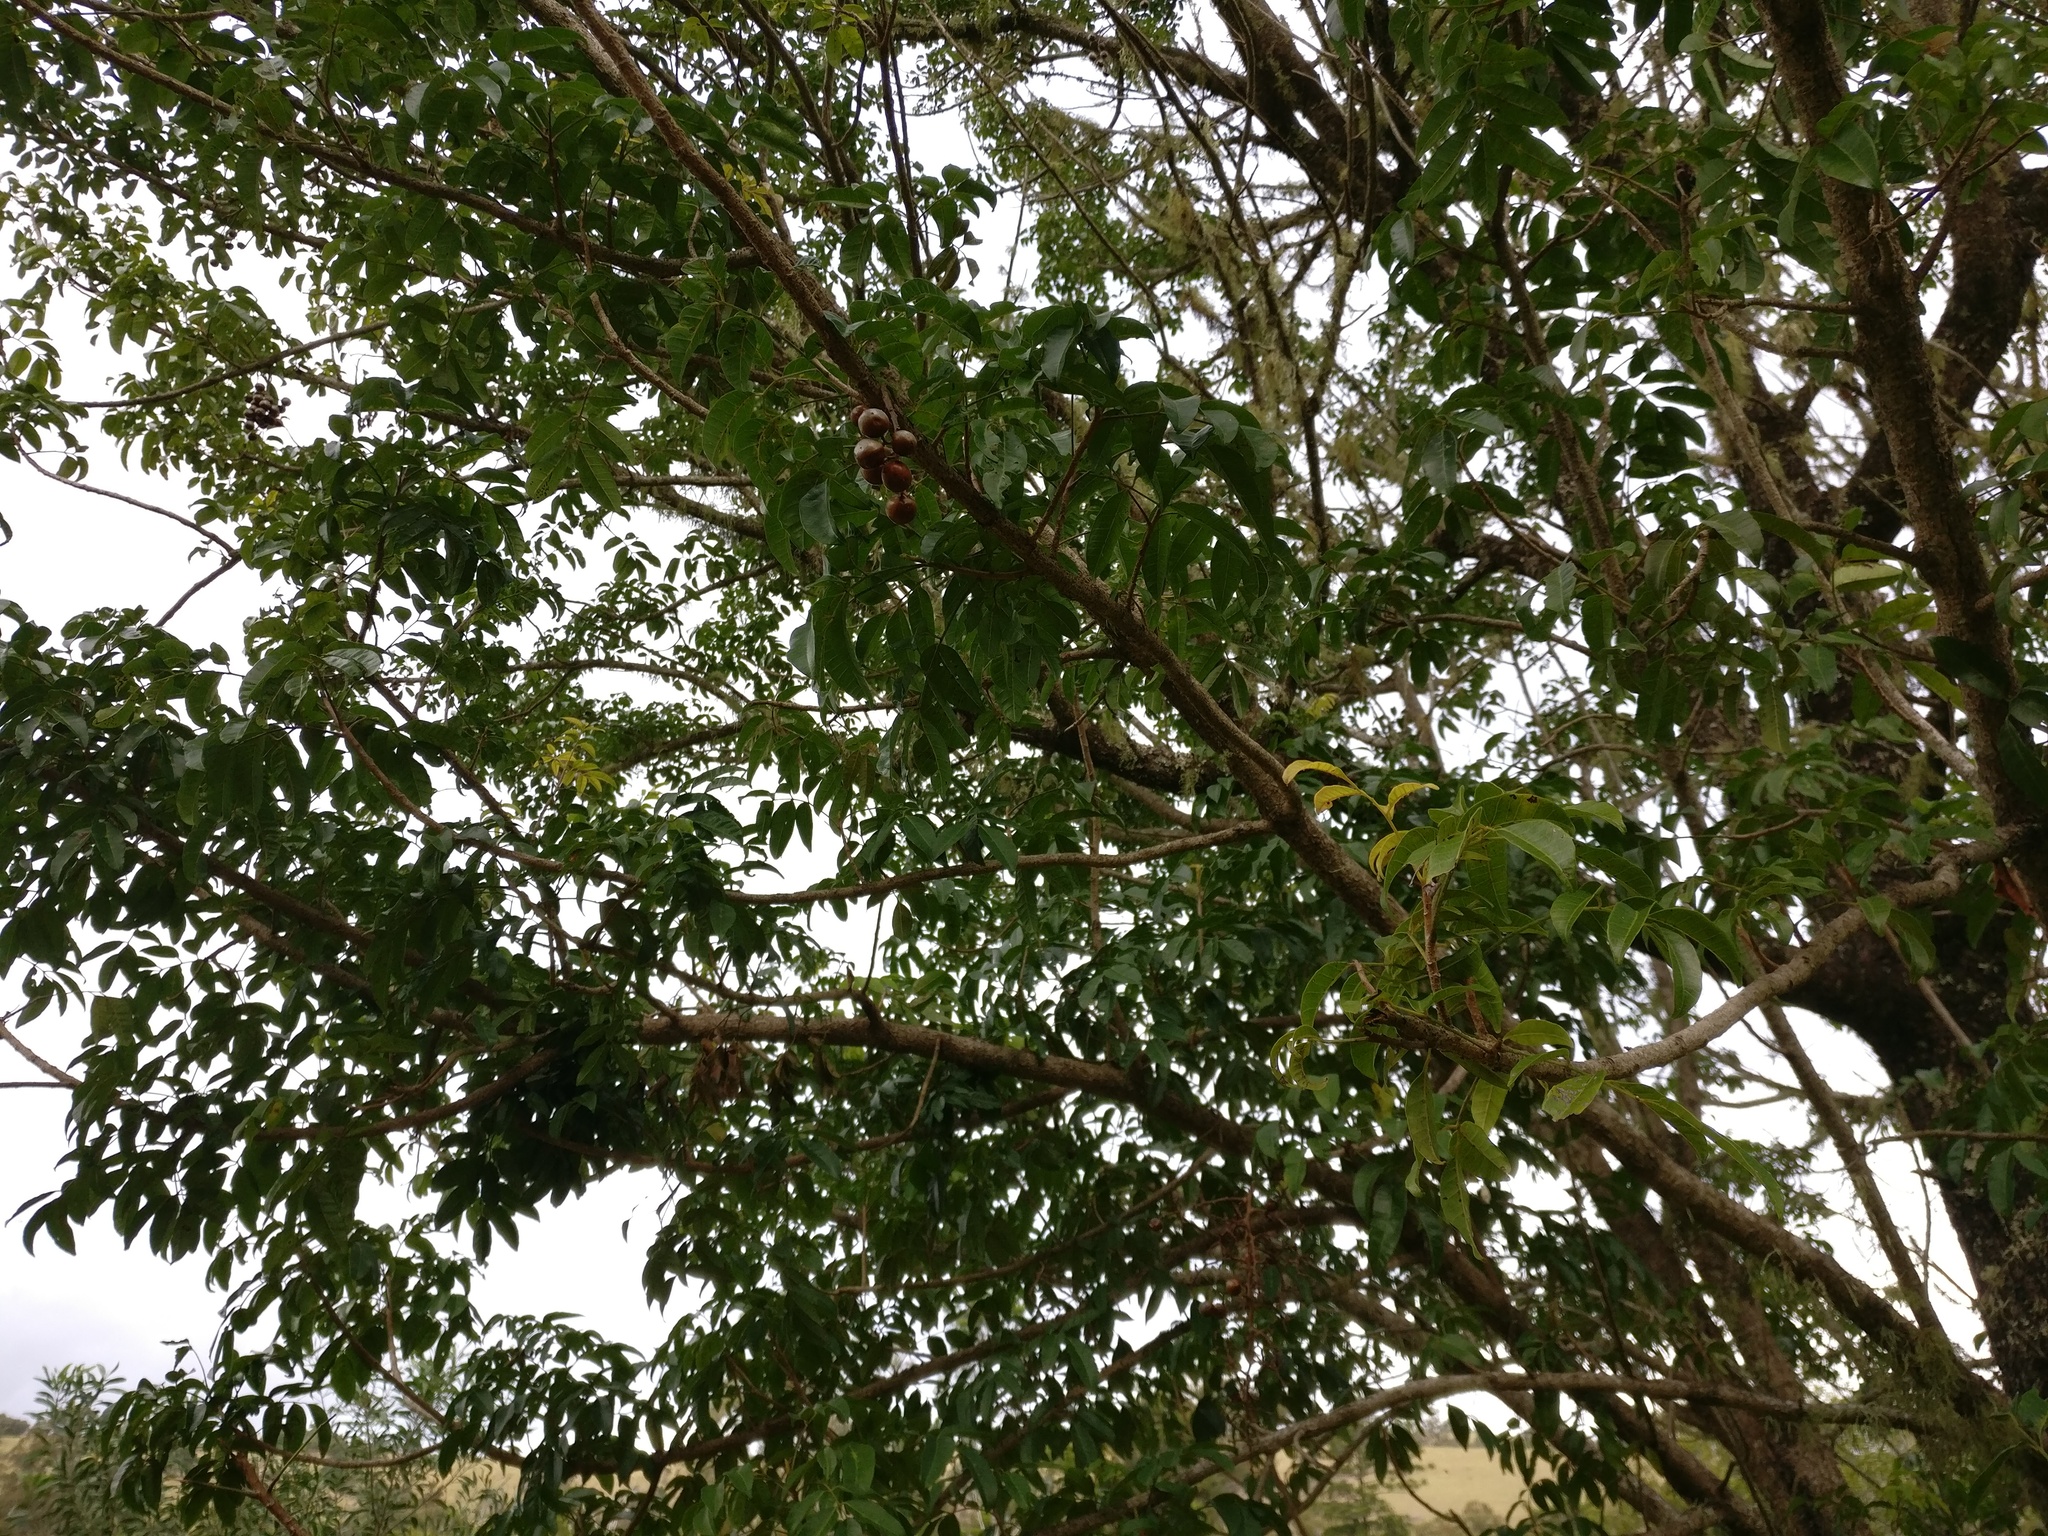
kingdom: Plantae
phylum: Tracheophyta
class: Magnoliopsida
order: Sapindales
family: Anacardiaceae
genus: Rhodosphaera
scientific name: Rhodosphaera rhodanthema
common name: Tulip satinwood
